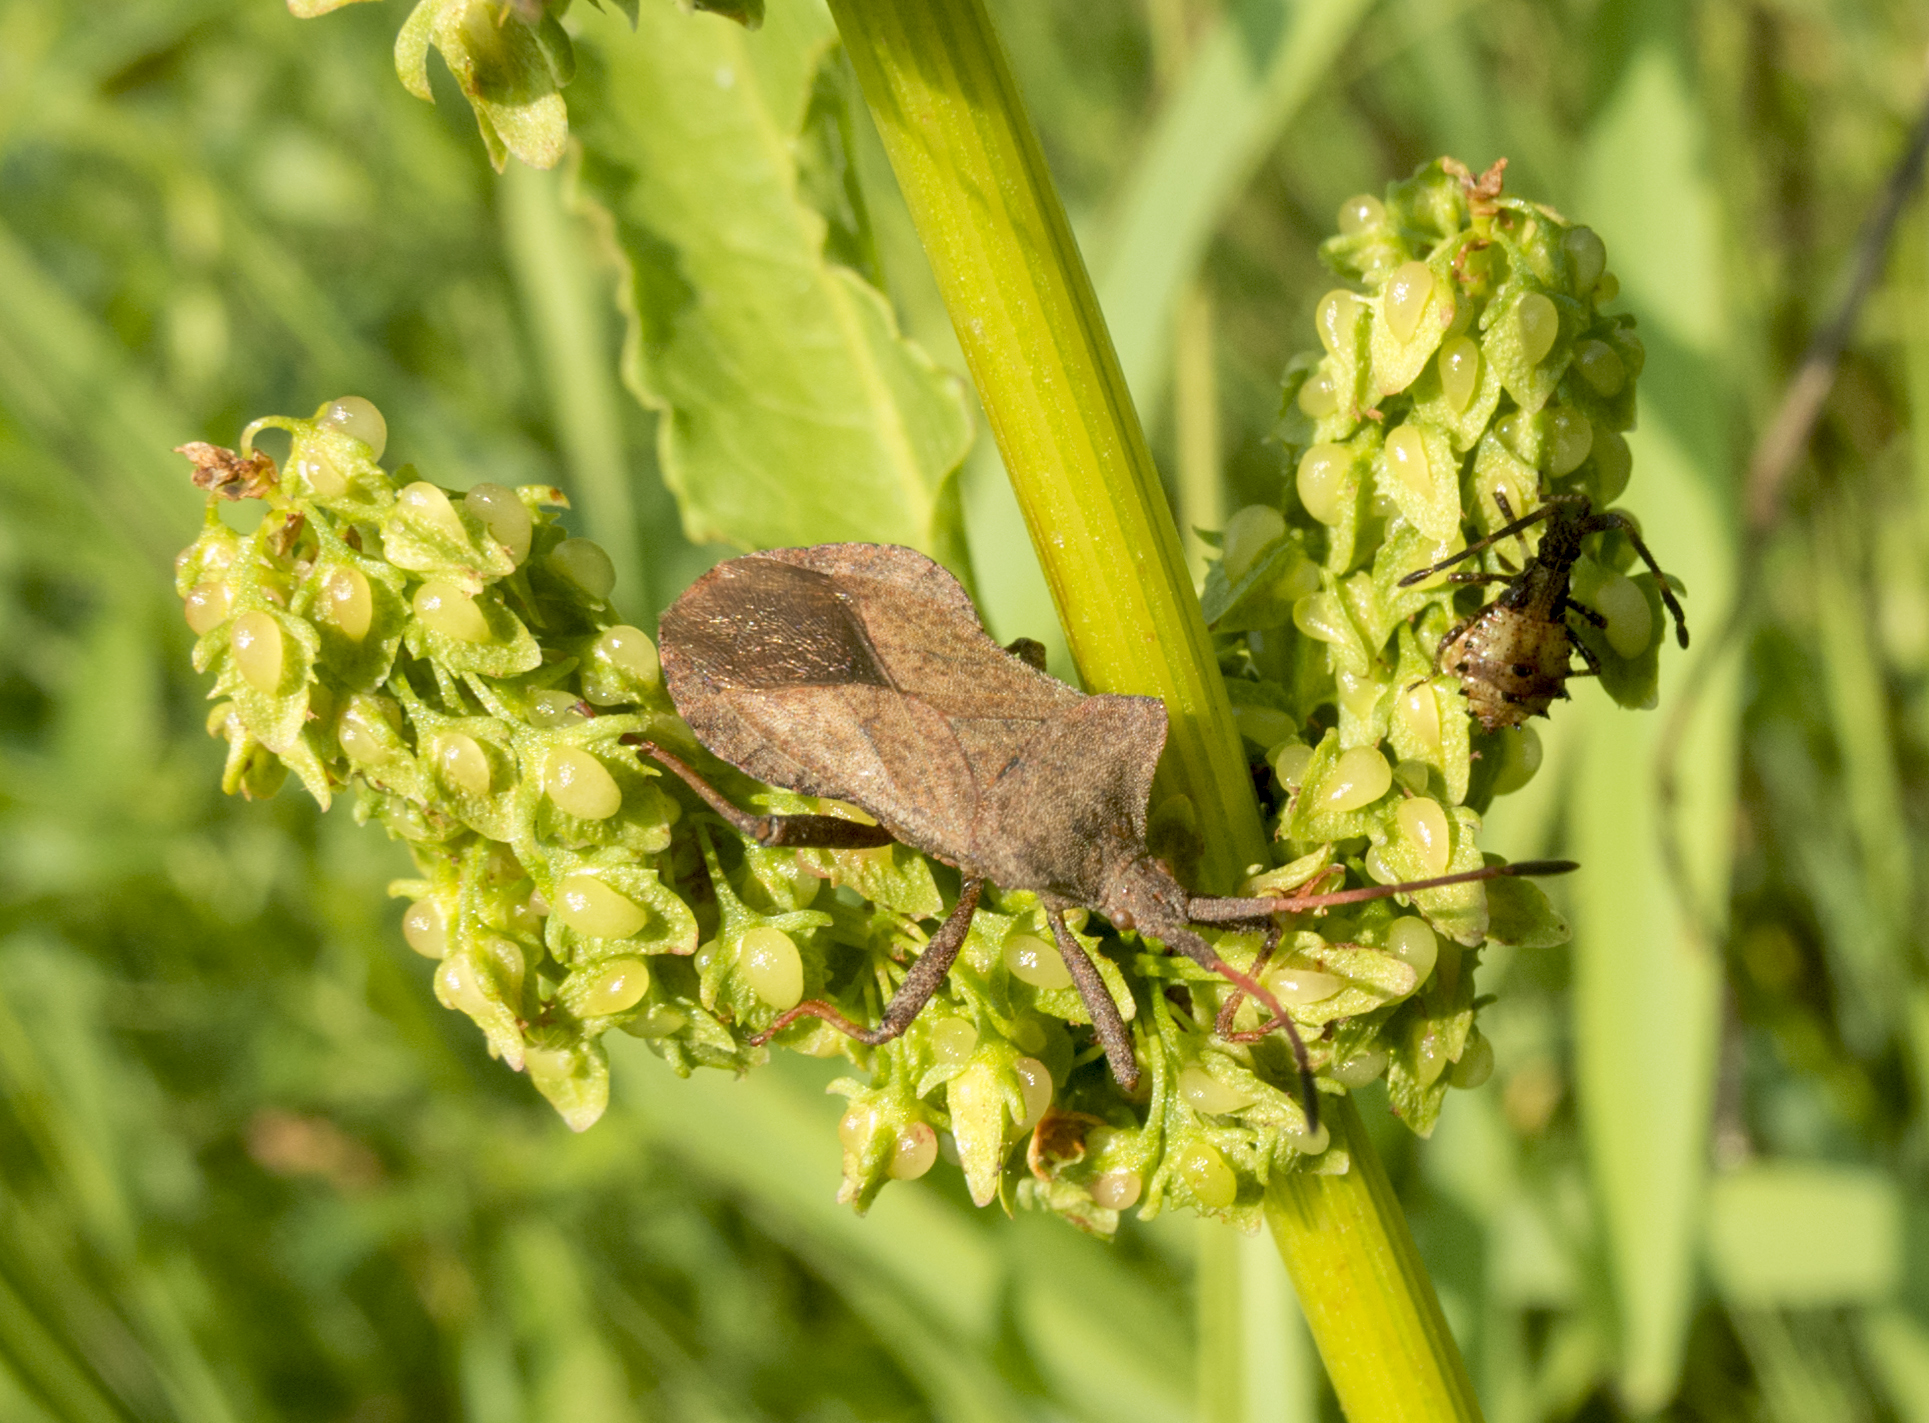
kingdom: Animalia
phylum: Arthropoda
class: Insecta
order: Hemiptera
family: Coreidae
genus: Coreus
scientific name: Coreus marginatus
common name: Dock bug
